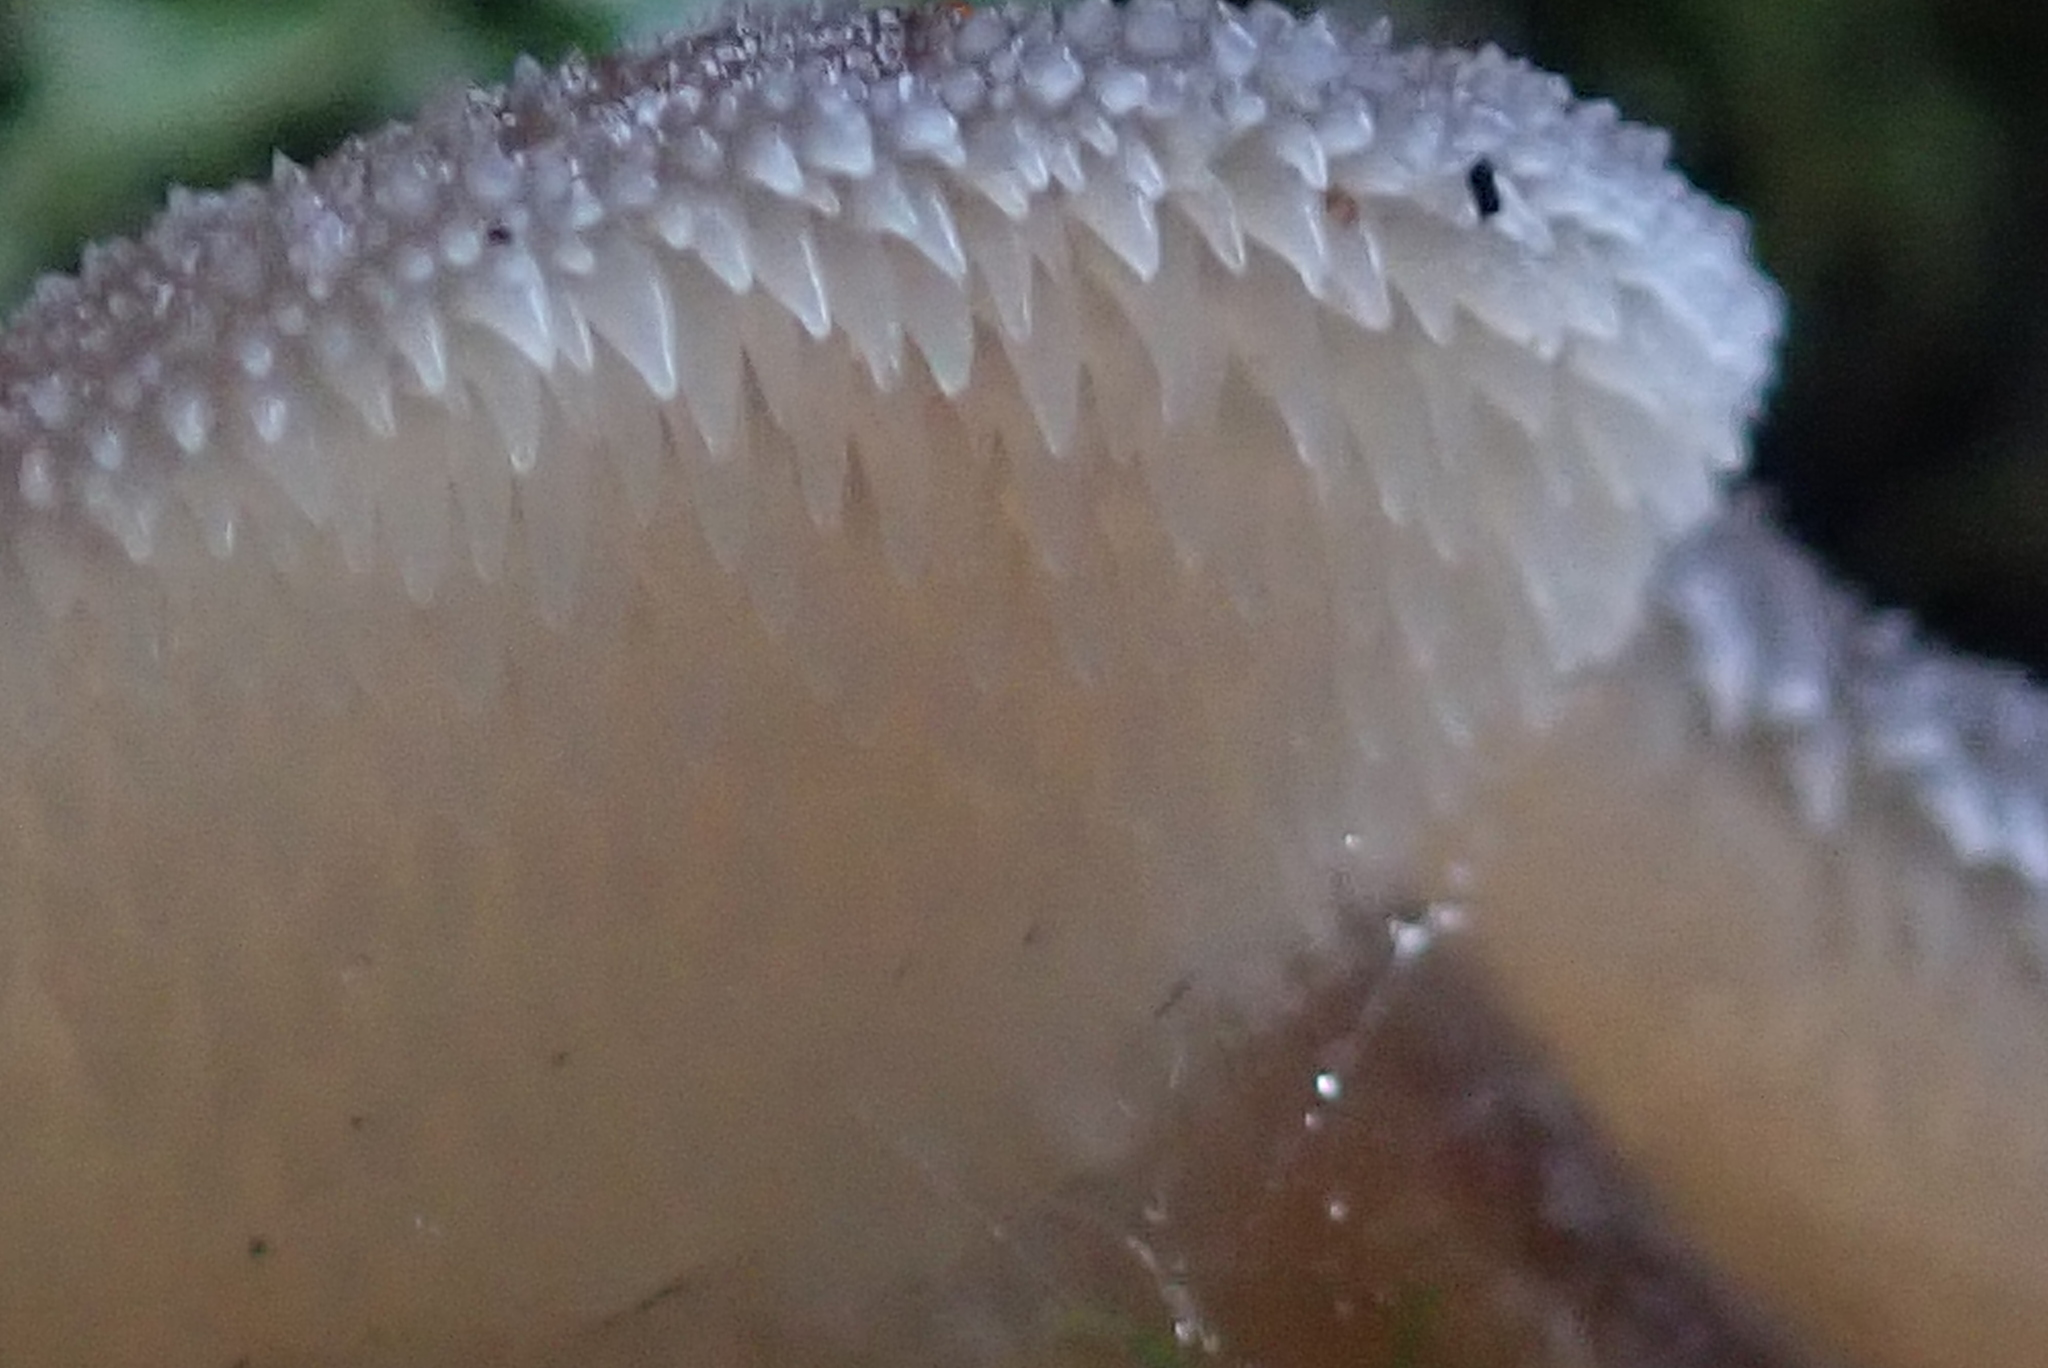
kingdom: Fungi
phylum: Basidiomycota
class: Agaricomycetes
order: Auriculariales
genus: Pseudohydnum
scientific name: Pseudohydnum gelatinosum
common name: Jelly tongue
